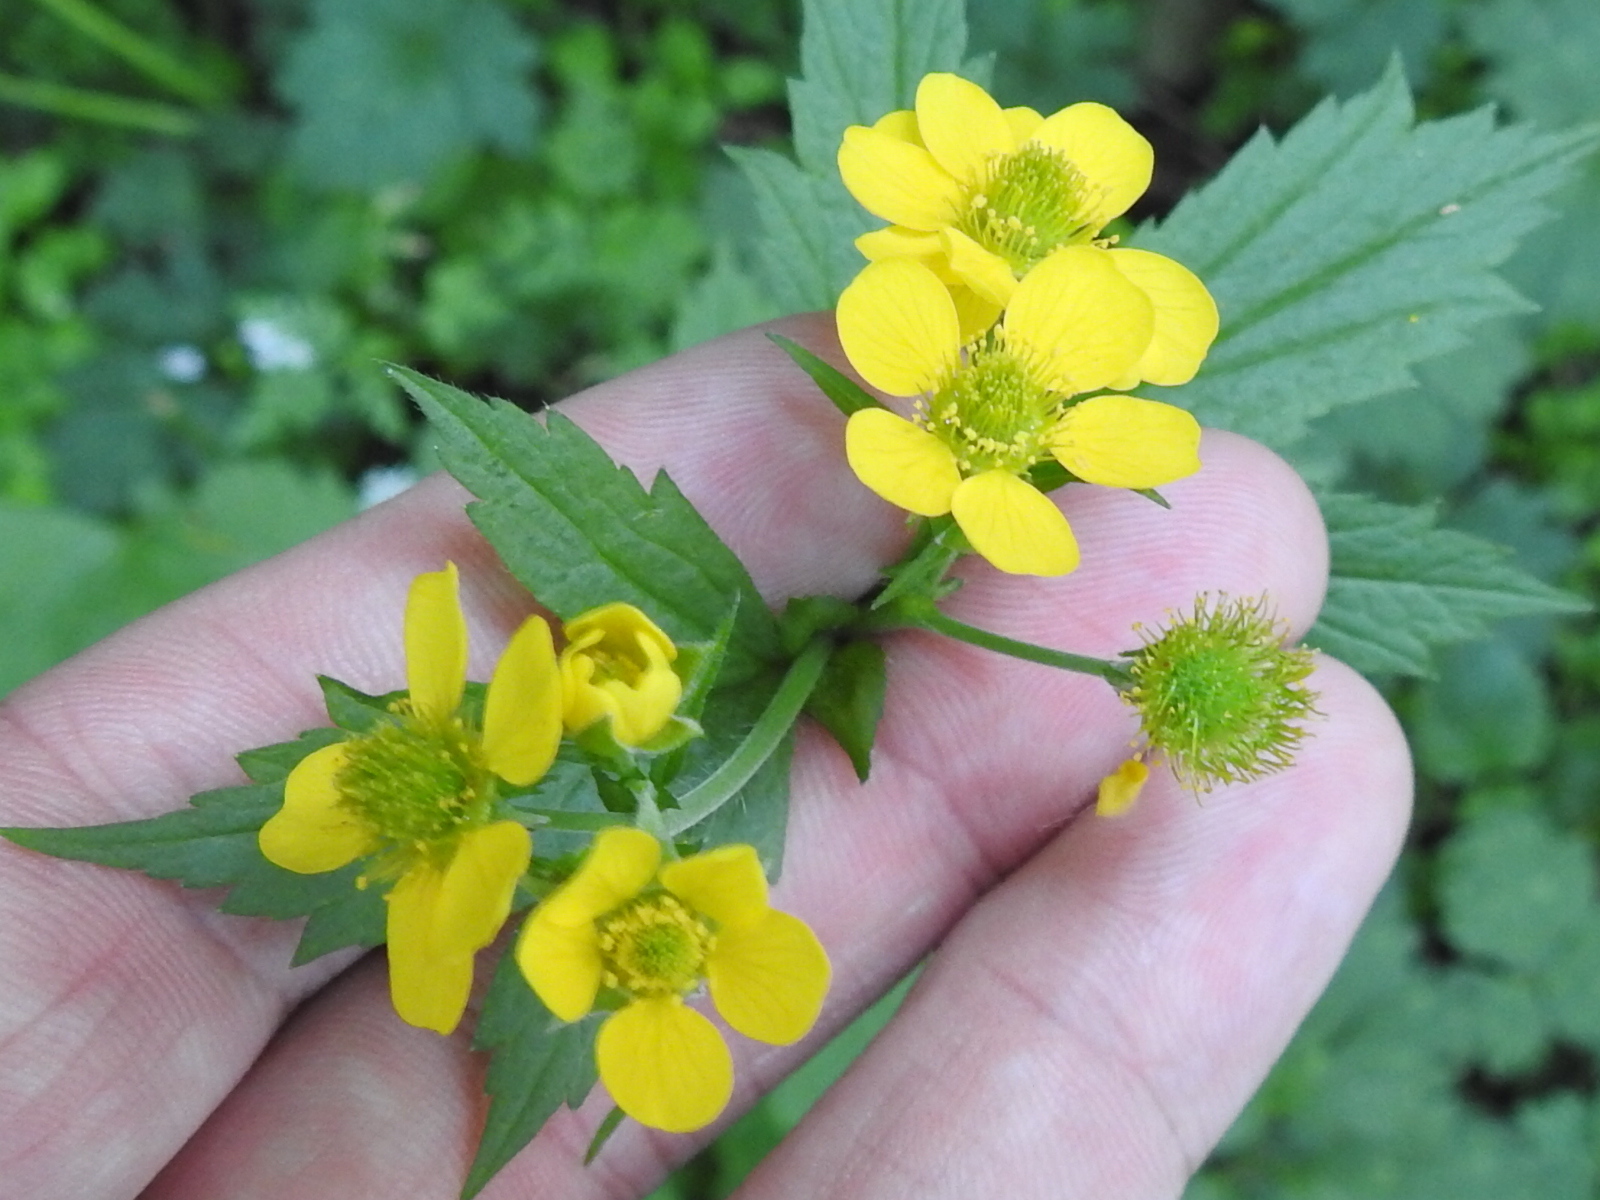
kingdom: Plantae
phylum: Tracheophyta
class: Magnoliopsida
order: Rosales
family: Rosaceae
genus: Geum
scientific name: Geum macrophyllum
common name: Large-leaved avens
